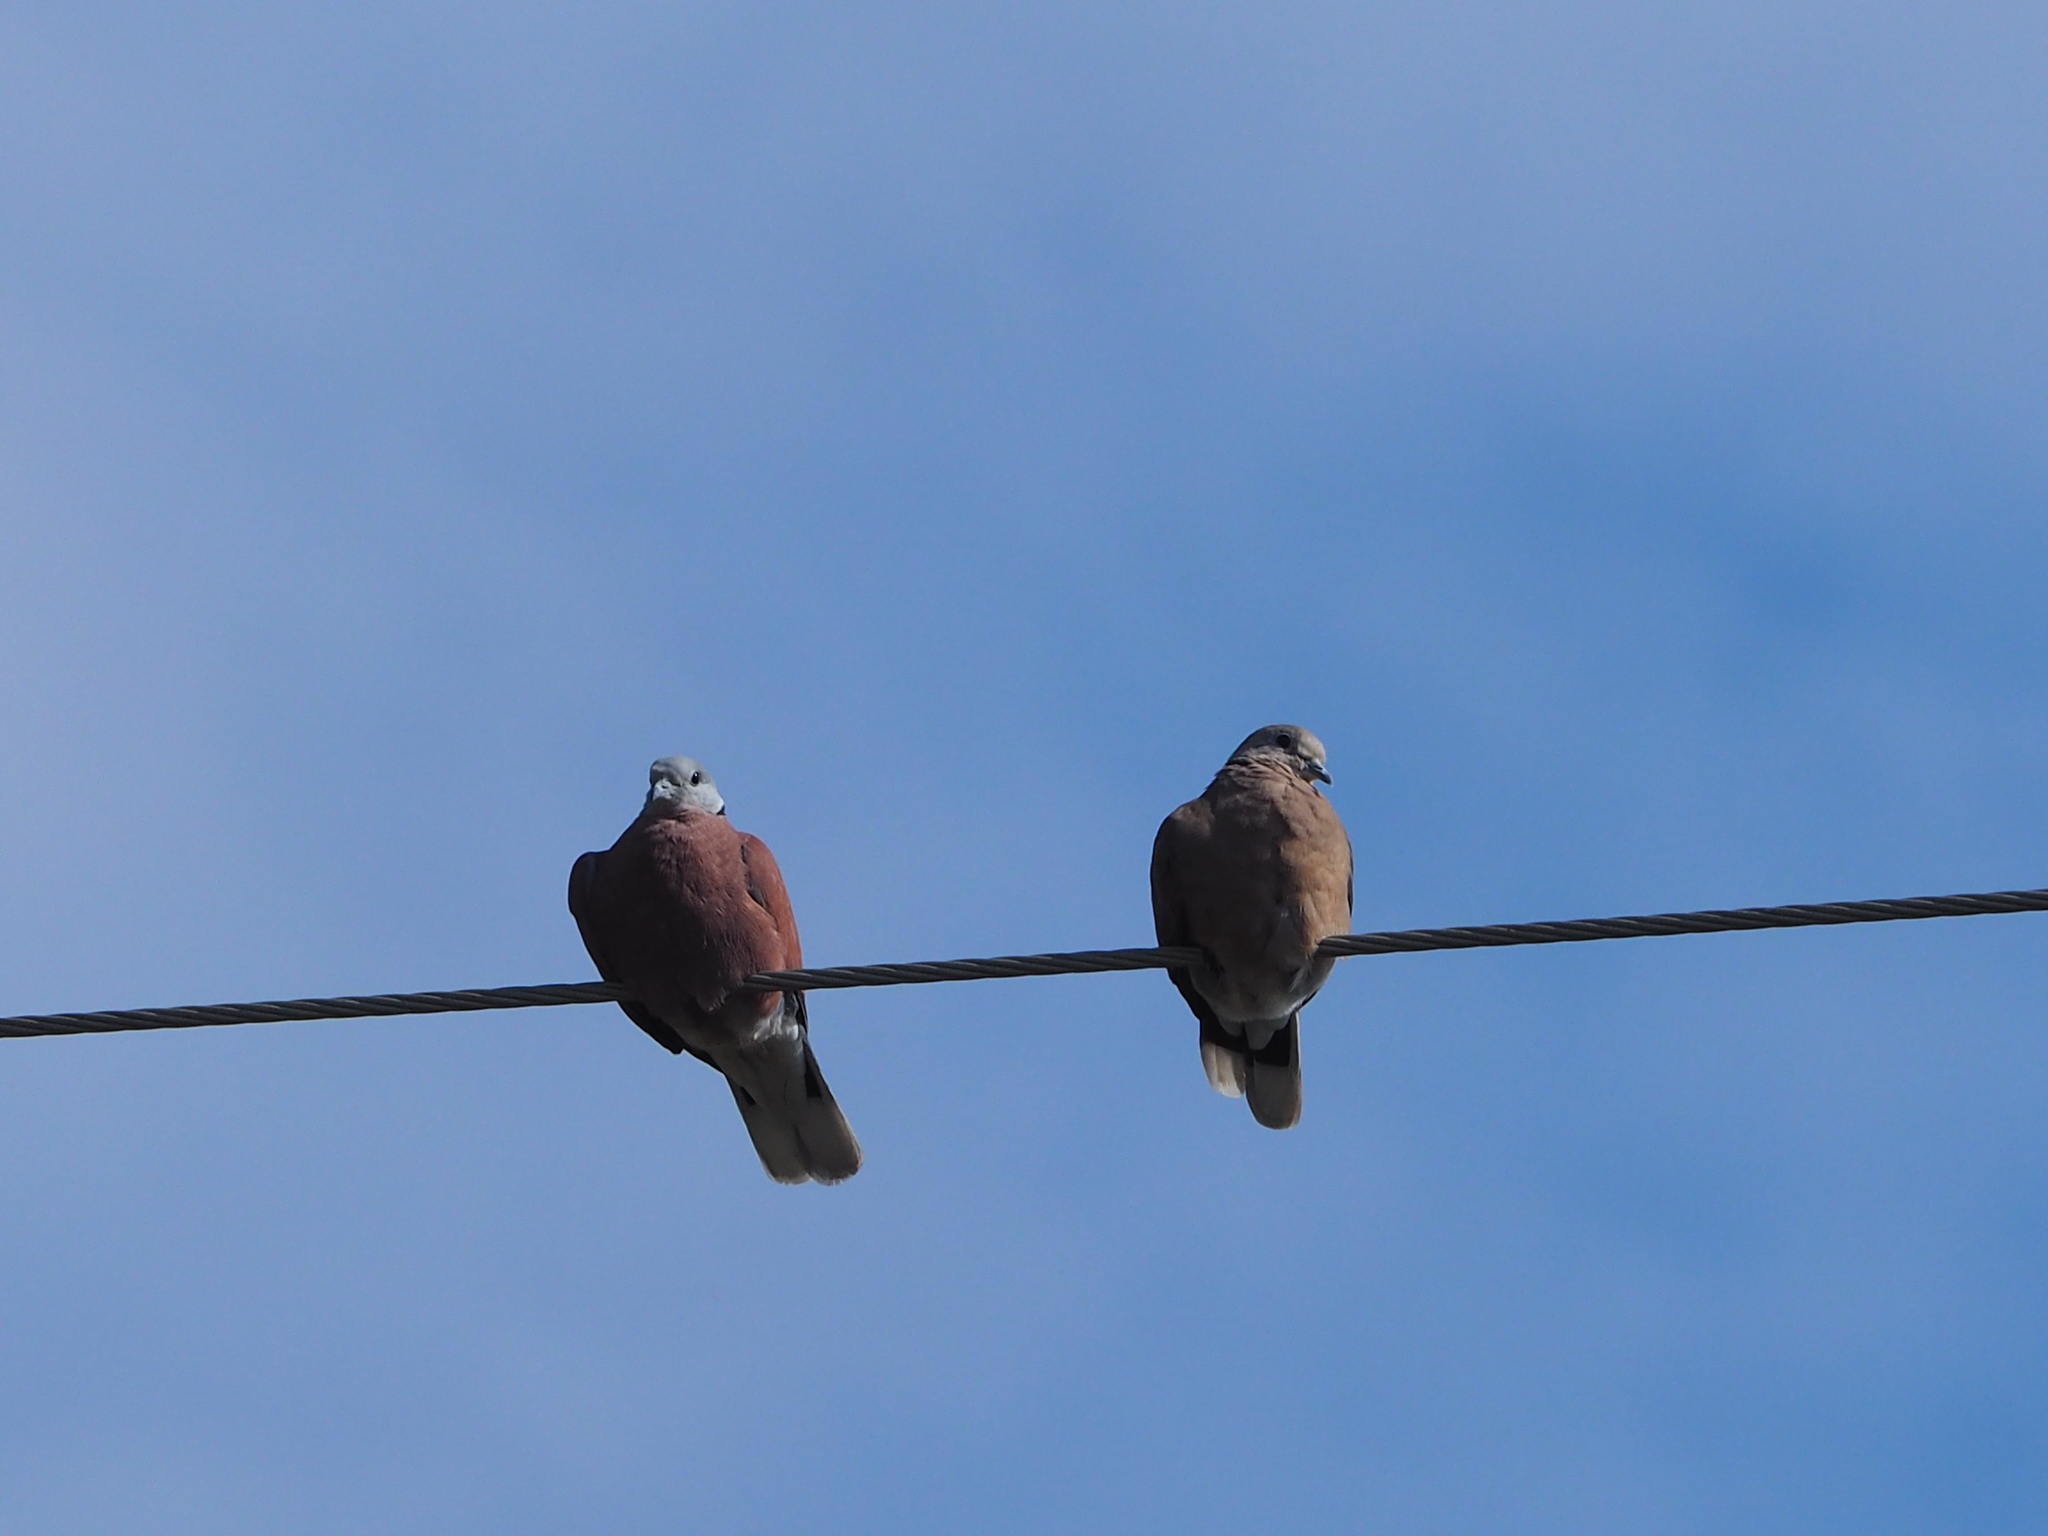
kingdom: Animalia
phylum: Chordata
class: Aves
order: Columbiformes
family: Columbidae
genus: Streptopelia
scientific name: Streptopelia tranquebarica
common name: Red turtle dove
